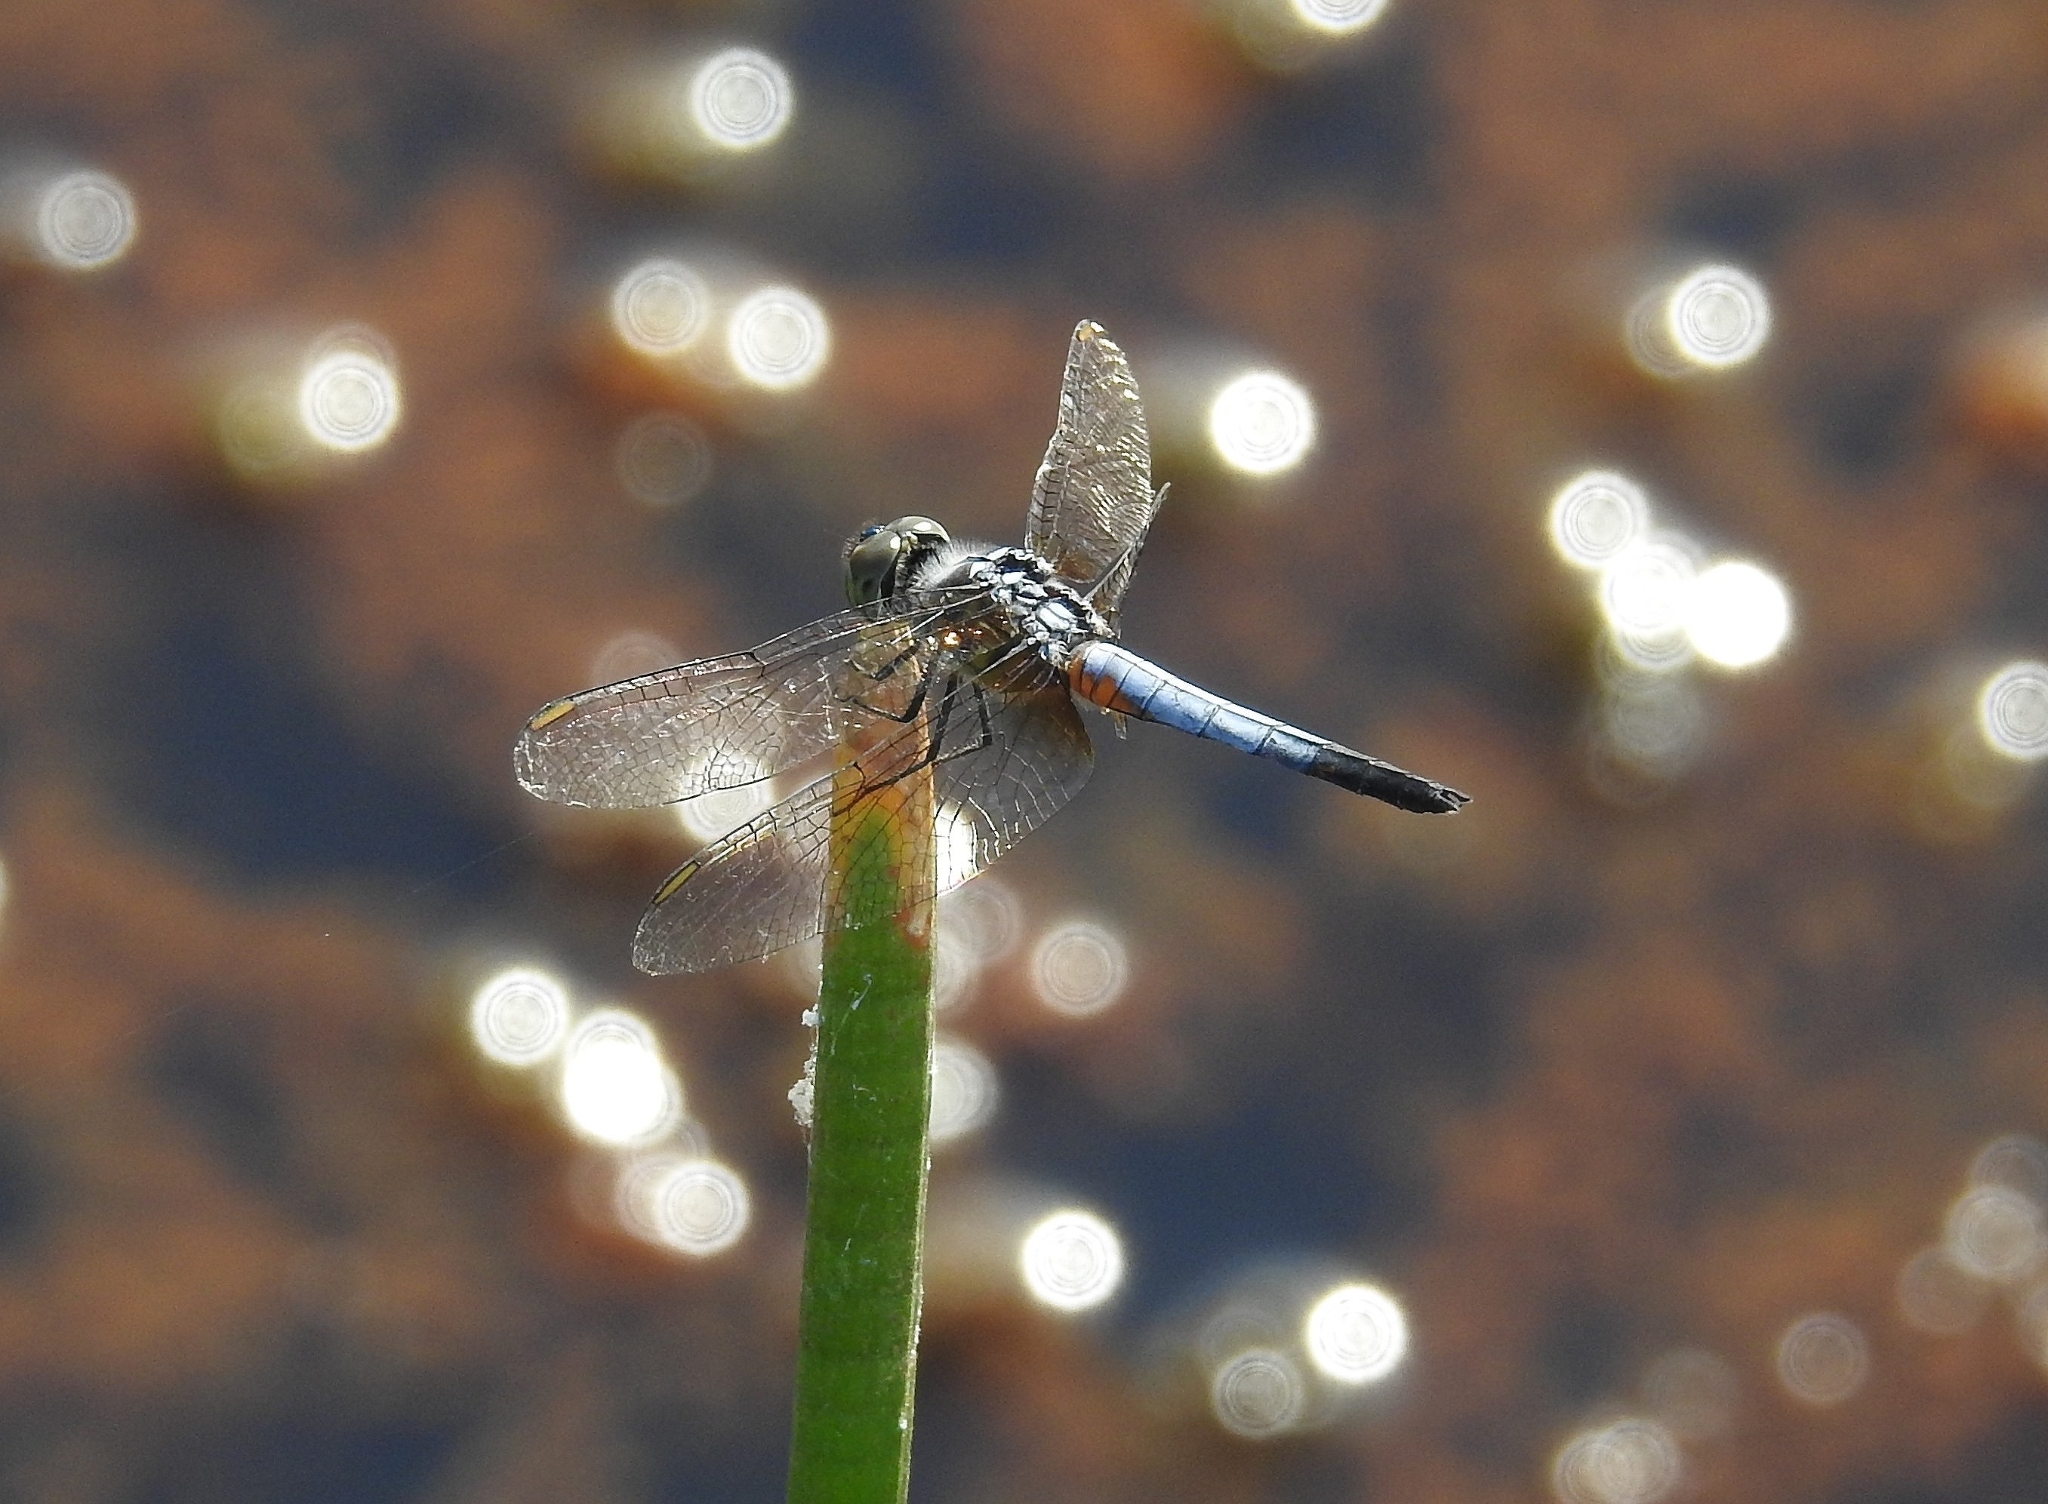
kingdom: Animalia
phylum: Arthropoda
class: Insecta
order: Odonata
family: Libellulidae
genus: Brachydiplax
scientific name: Brachydiplax chalybea
